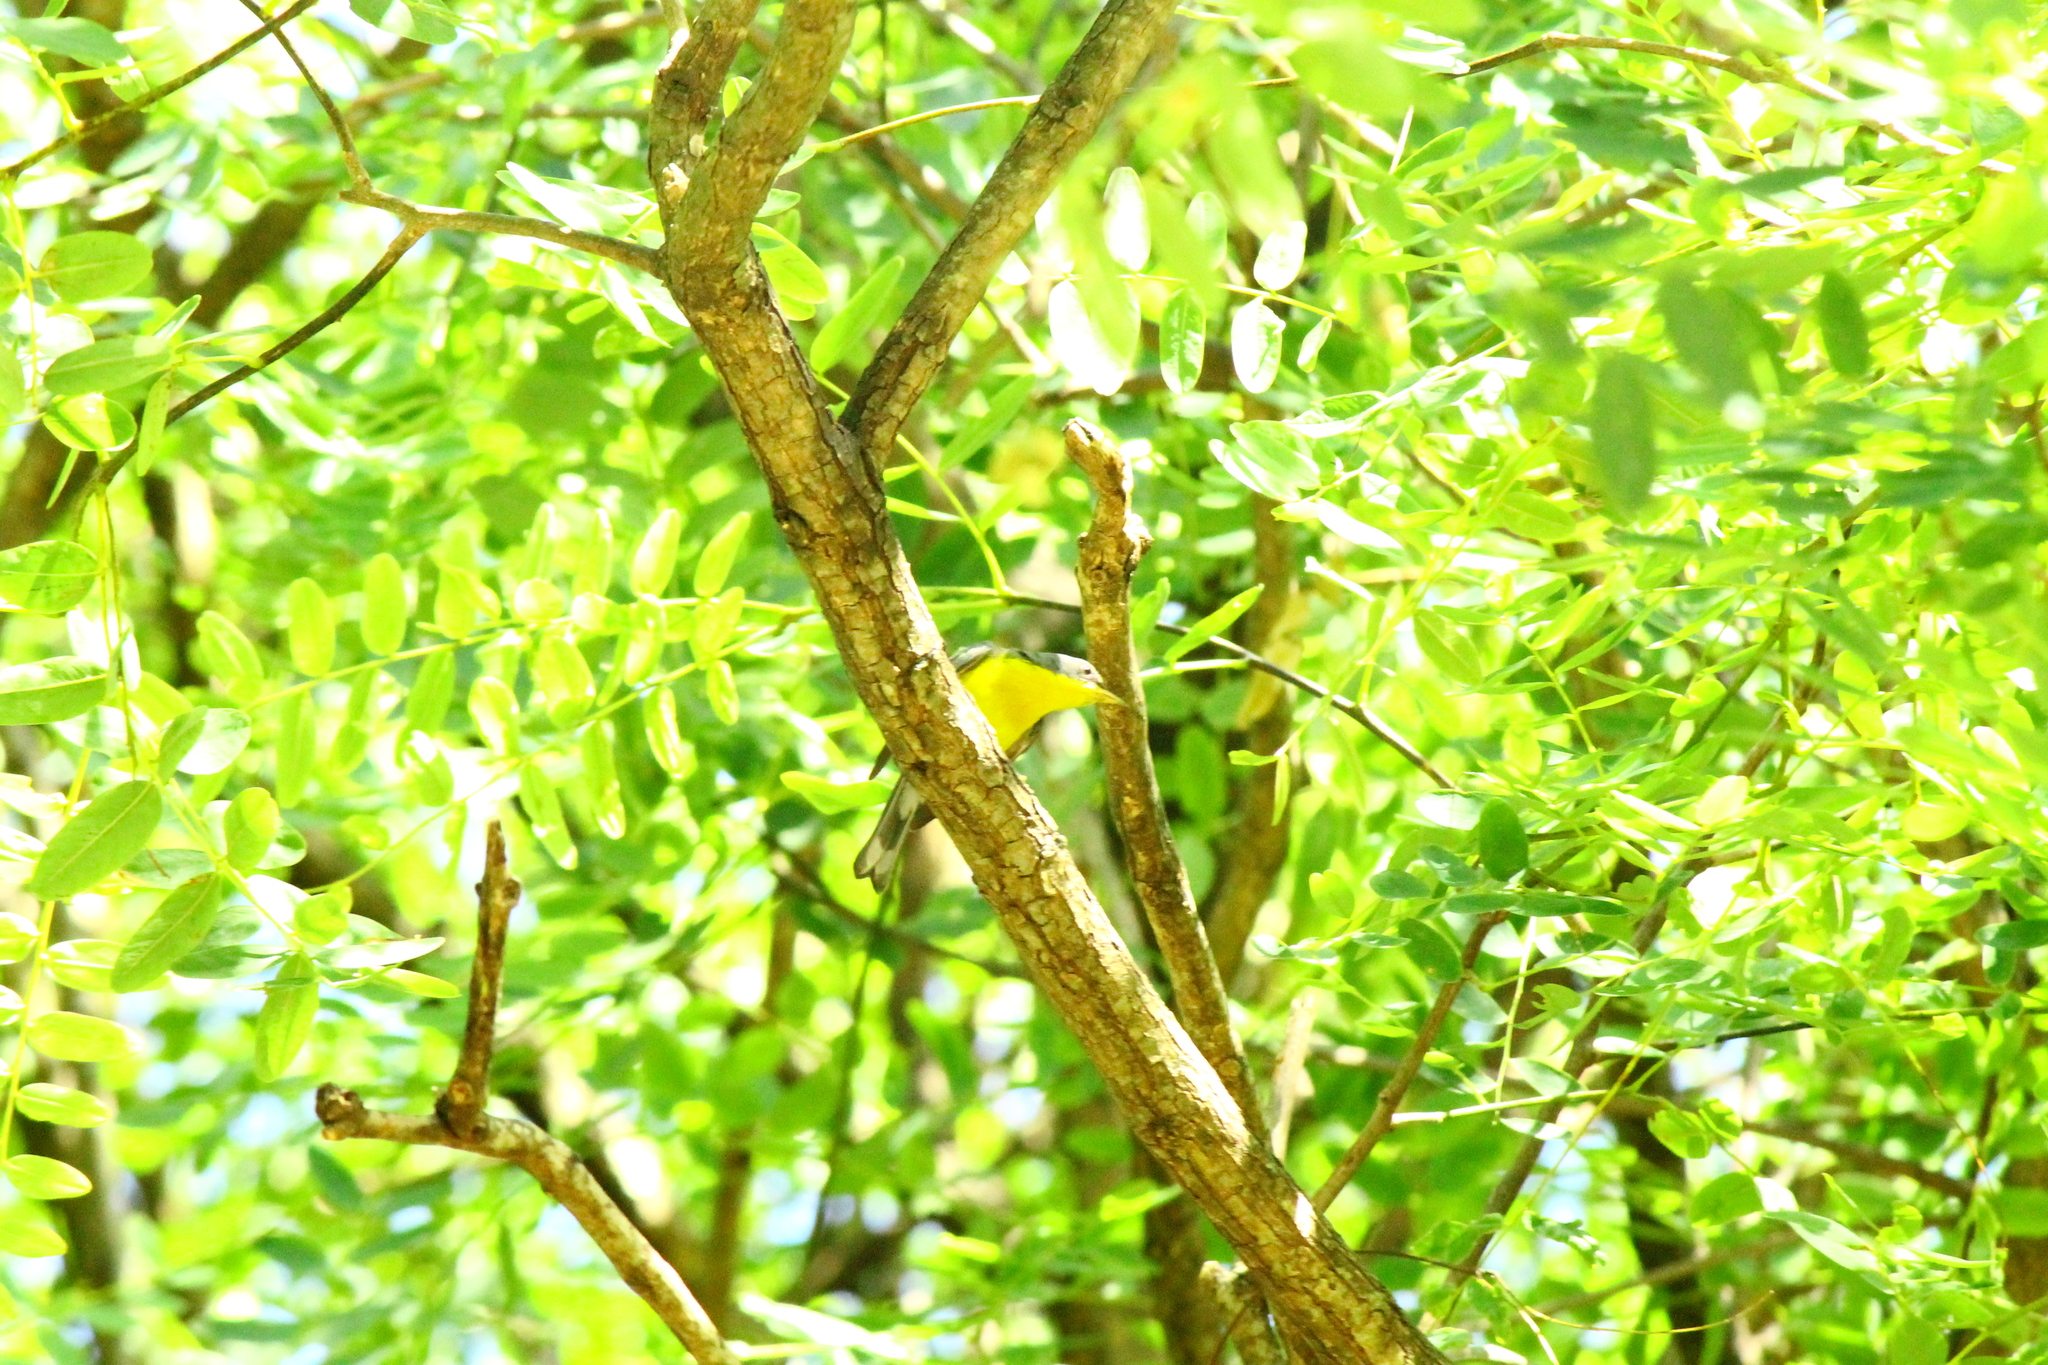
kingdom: Animalia
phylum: Chordata
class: Aves
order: Passeriformes
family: Parulidae
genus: Setophaga
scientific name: Setophaga pitiayumi
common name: Tropical parula
